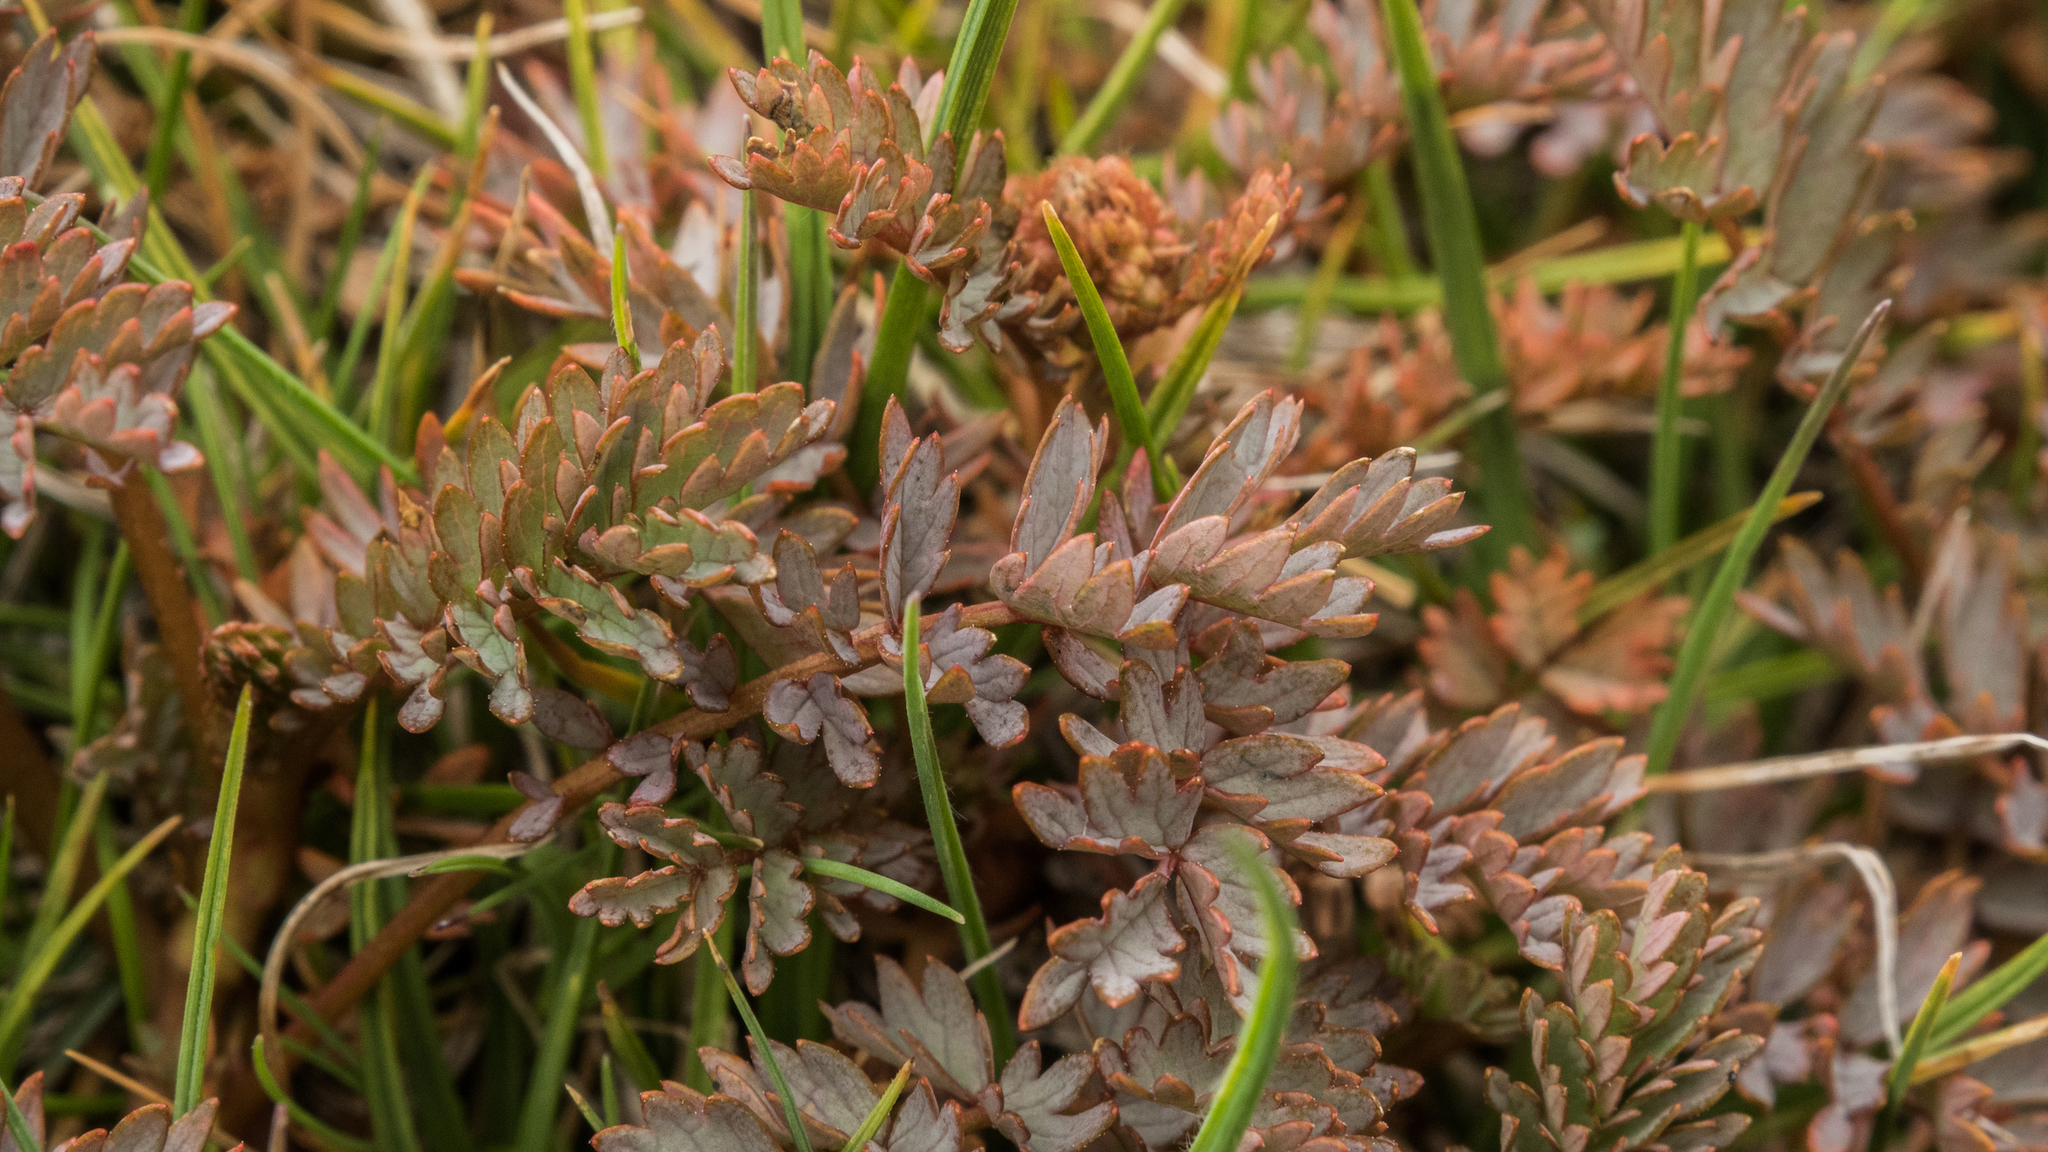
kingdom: Plantae
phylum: Tracheophyta
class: Magnoliopsida
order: Rosales
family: Rosaceae
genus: Acaena
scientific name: Acaena saccaticupula
